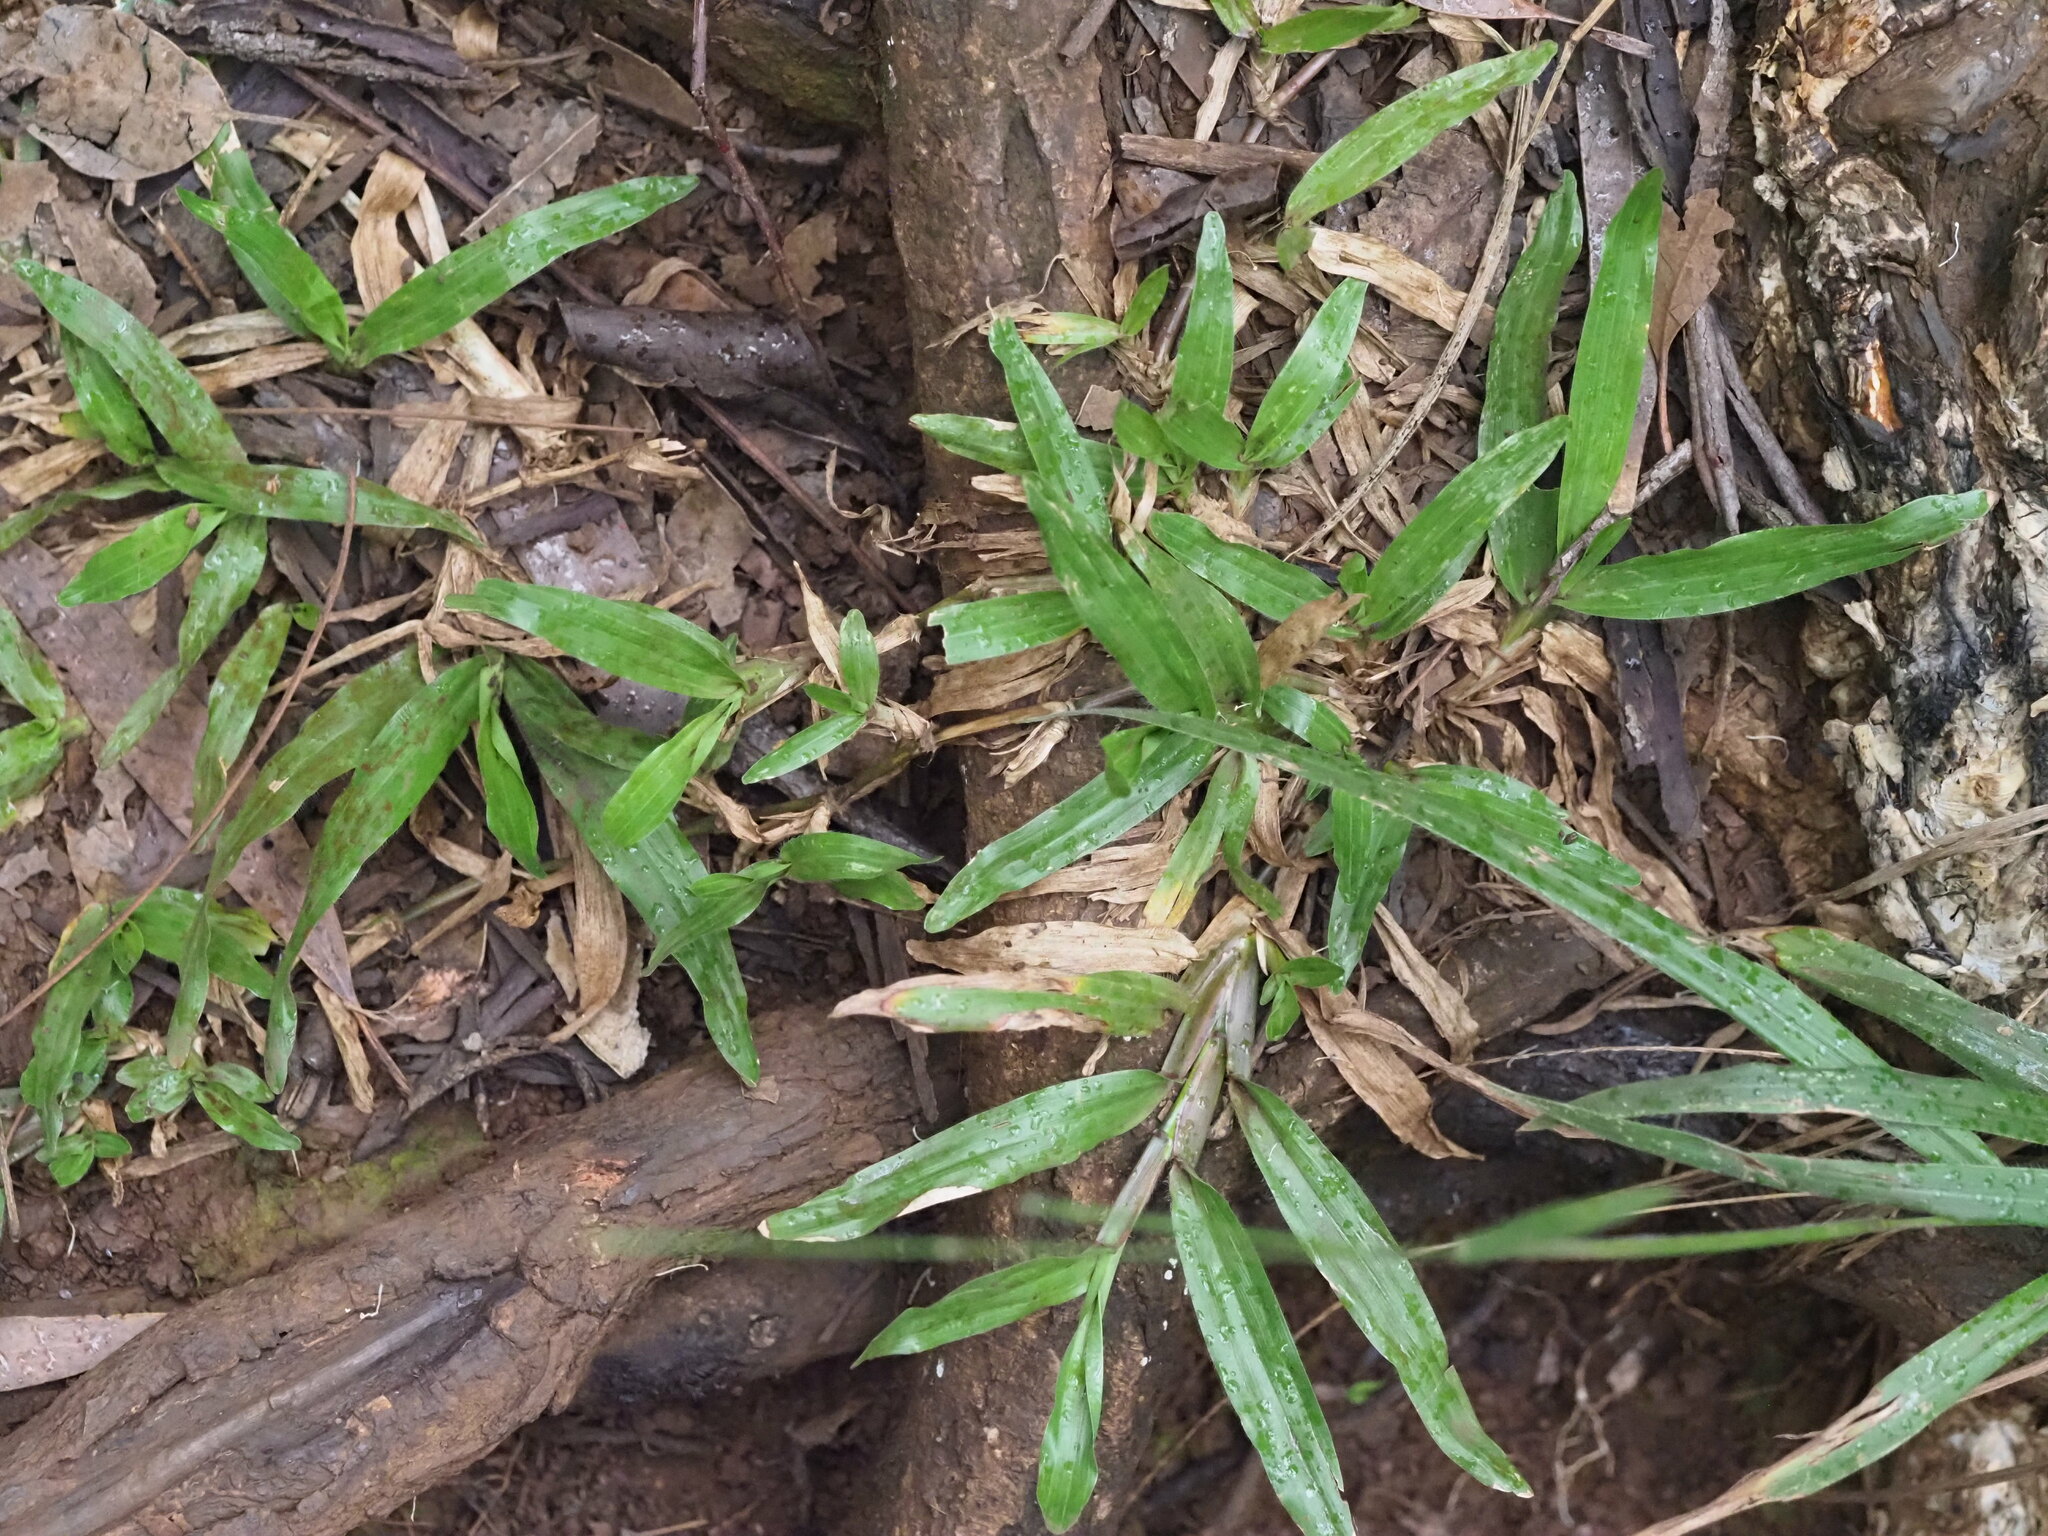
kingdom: Plantae
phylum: Tracheophyta
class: Liliopsida
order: Poales
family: Poaceae
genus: Axonopus
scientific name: Axonopus compressus
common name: American carpet grass
